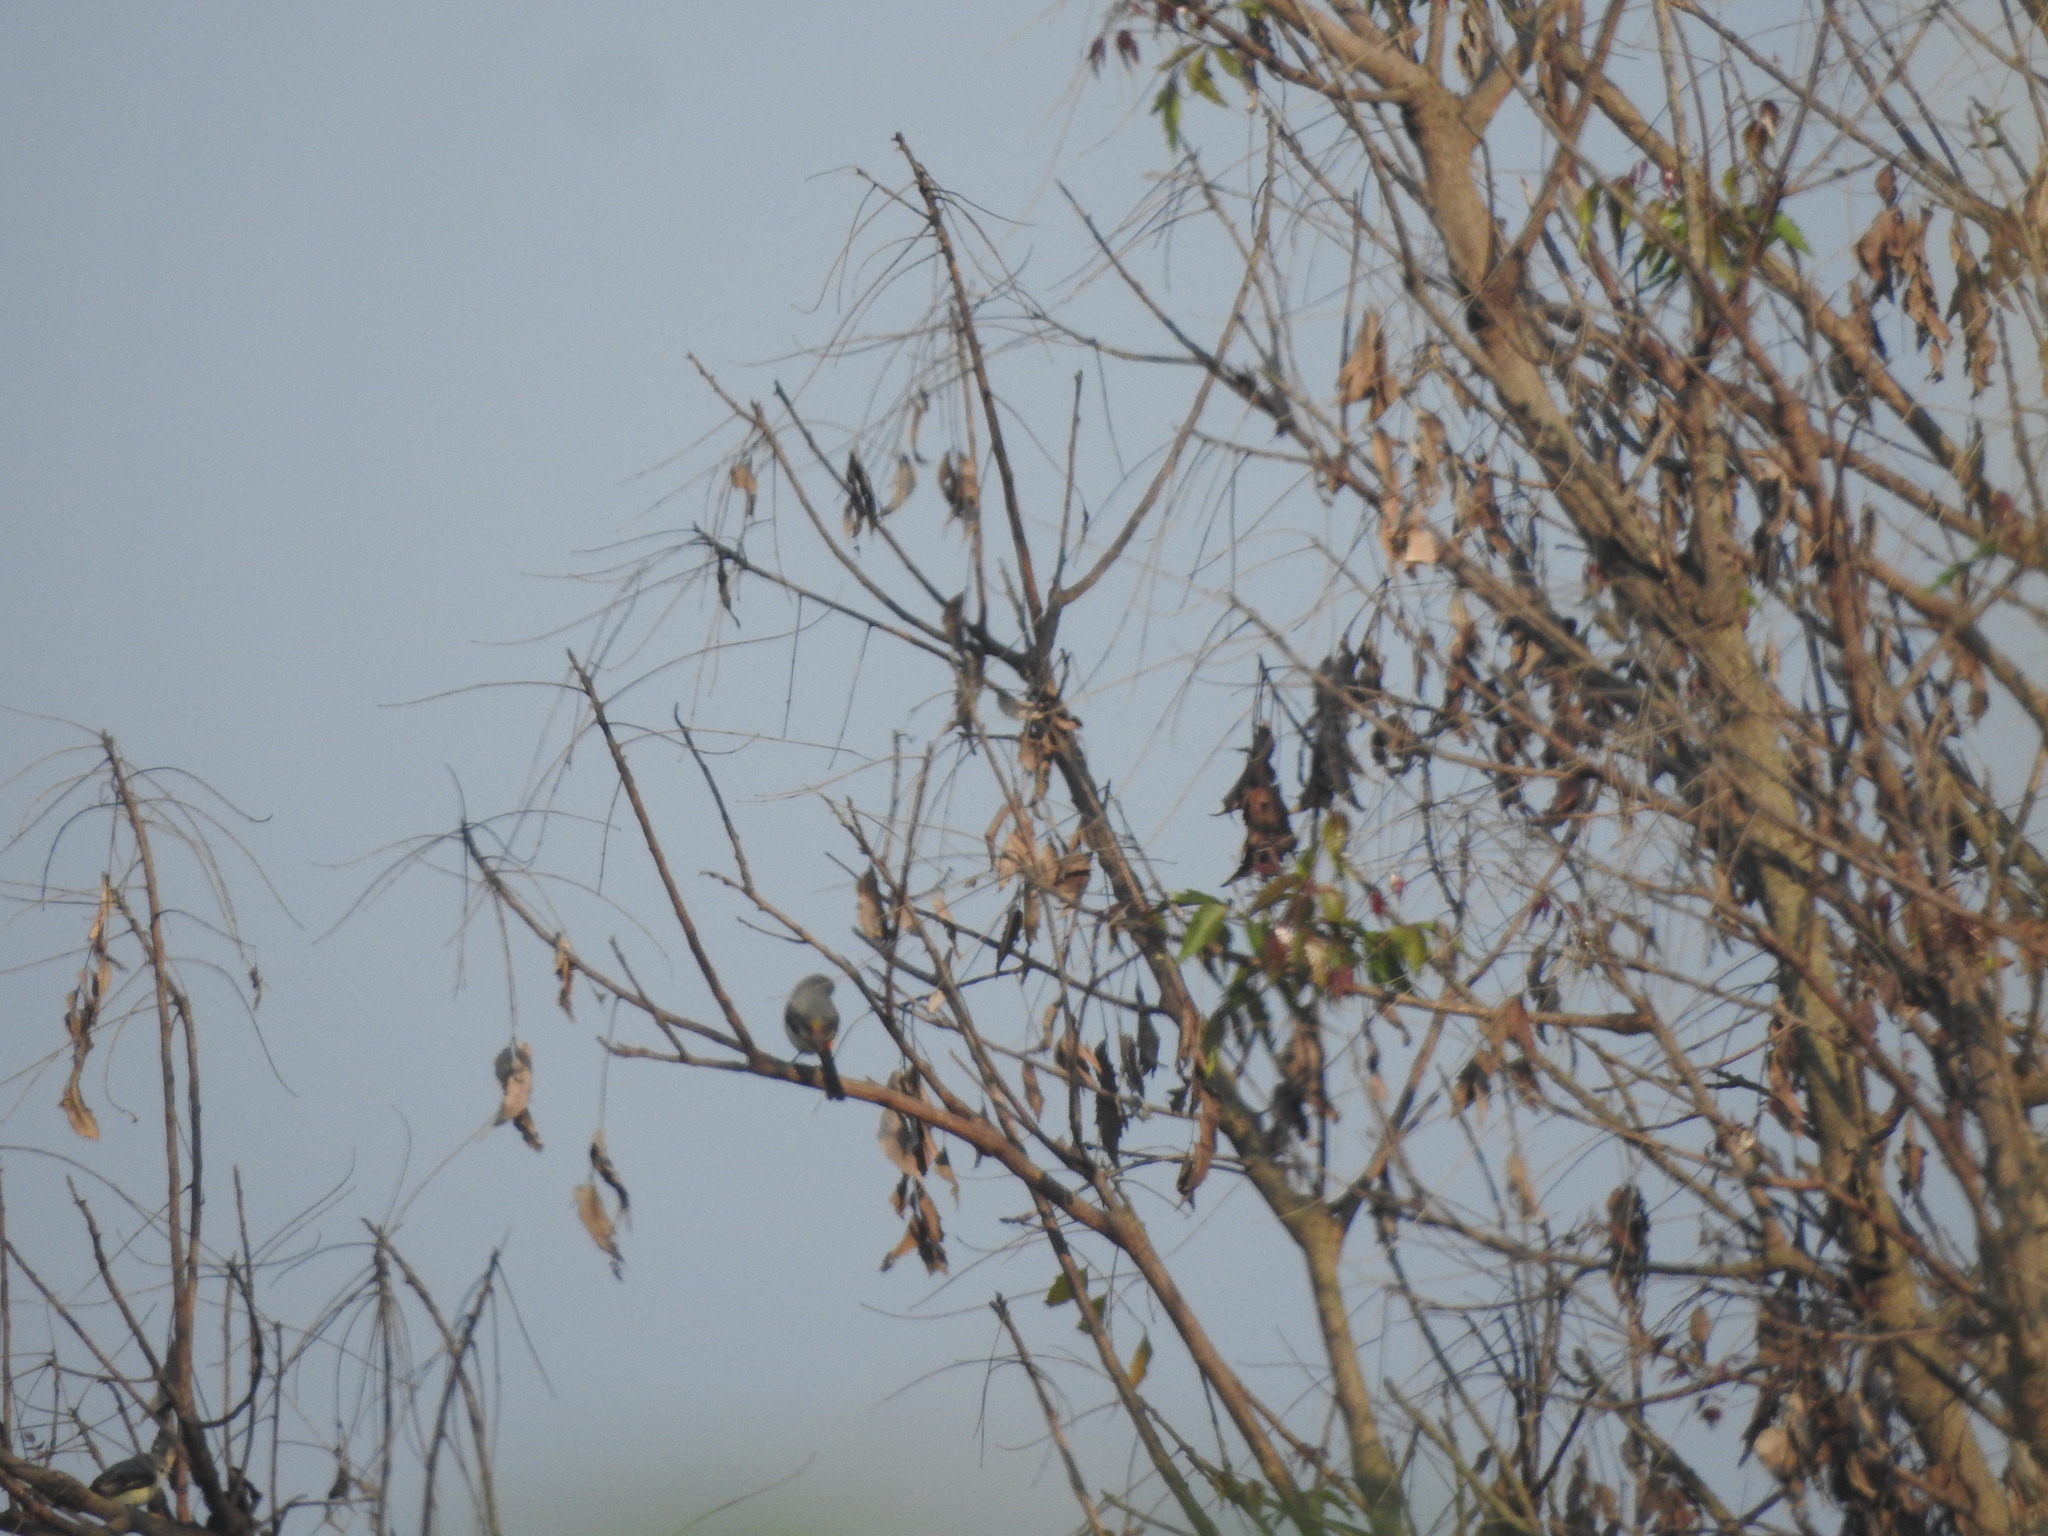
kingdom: Animalia
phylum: Chordata
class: Aves
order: Passeriformes
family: Campephagidae
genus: Pericrocotus
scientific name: Pericrocotus cinnamomeus
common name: Small minivet
